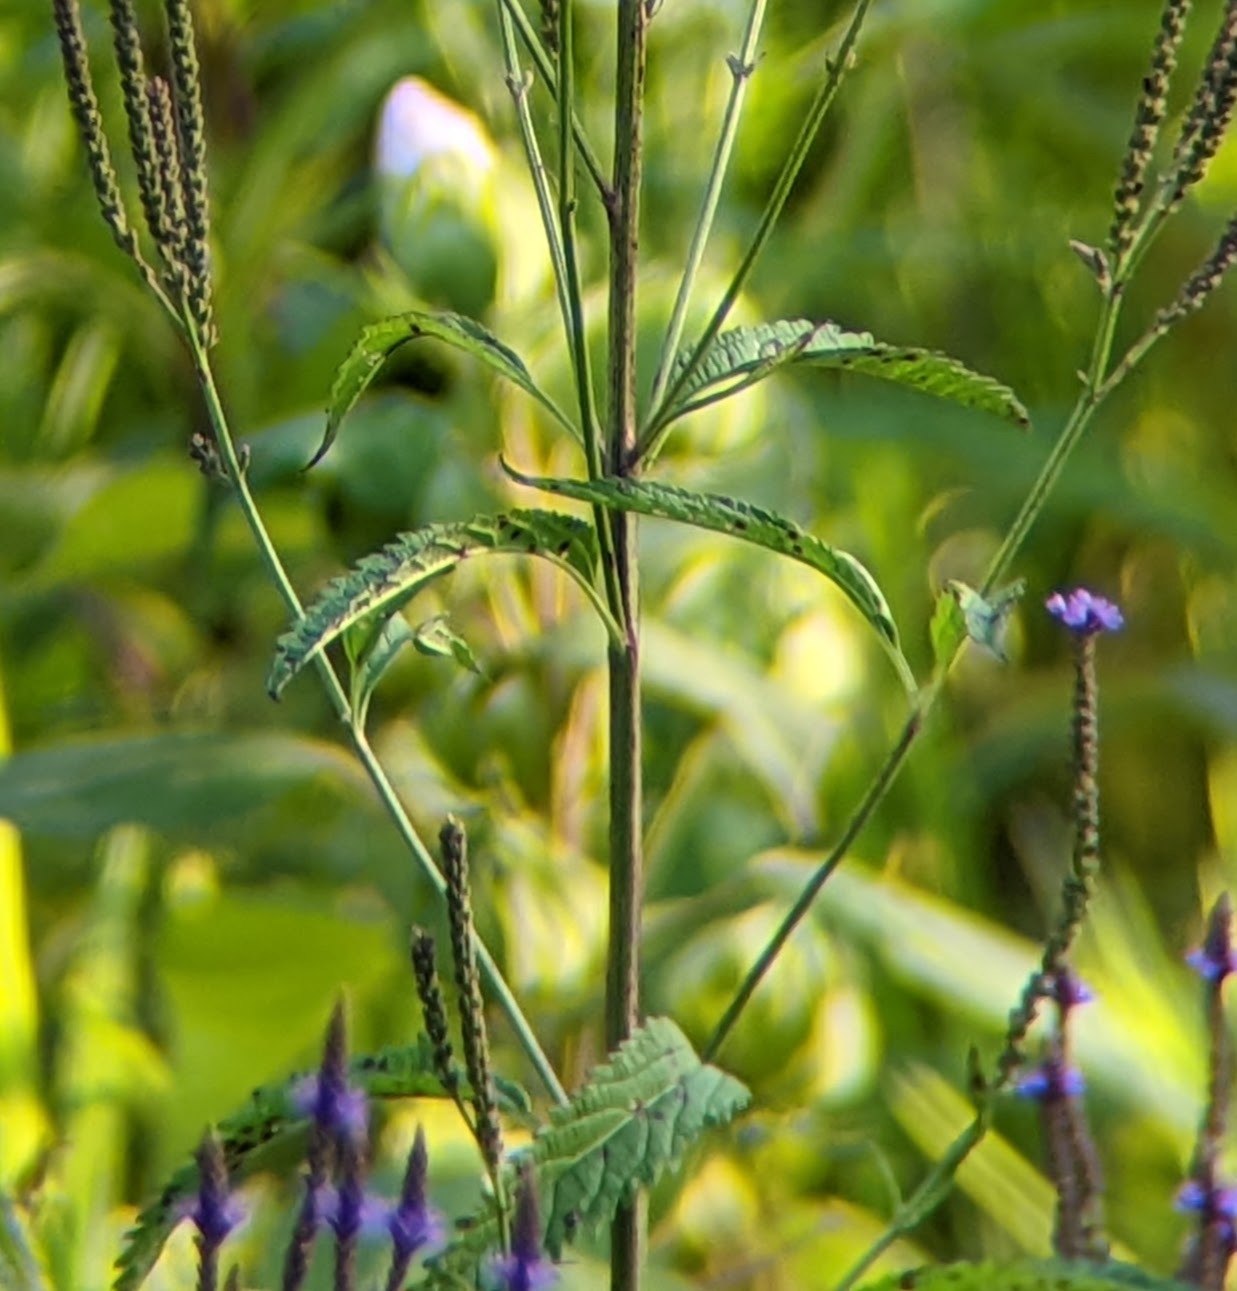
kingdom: Plantae
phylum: Tracheophyta
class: Magnoliopsida
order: Lamiales
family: Verbenaceae
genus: Verbena
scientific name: Verbena hastata
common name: American blue vervain
